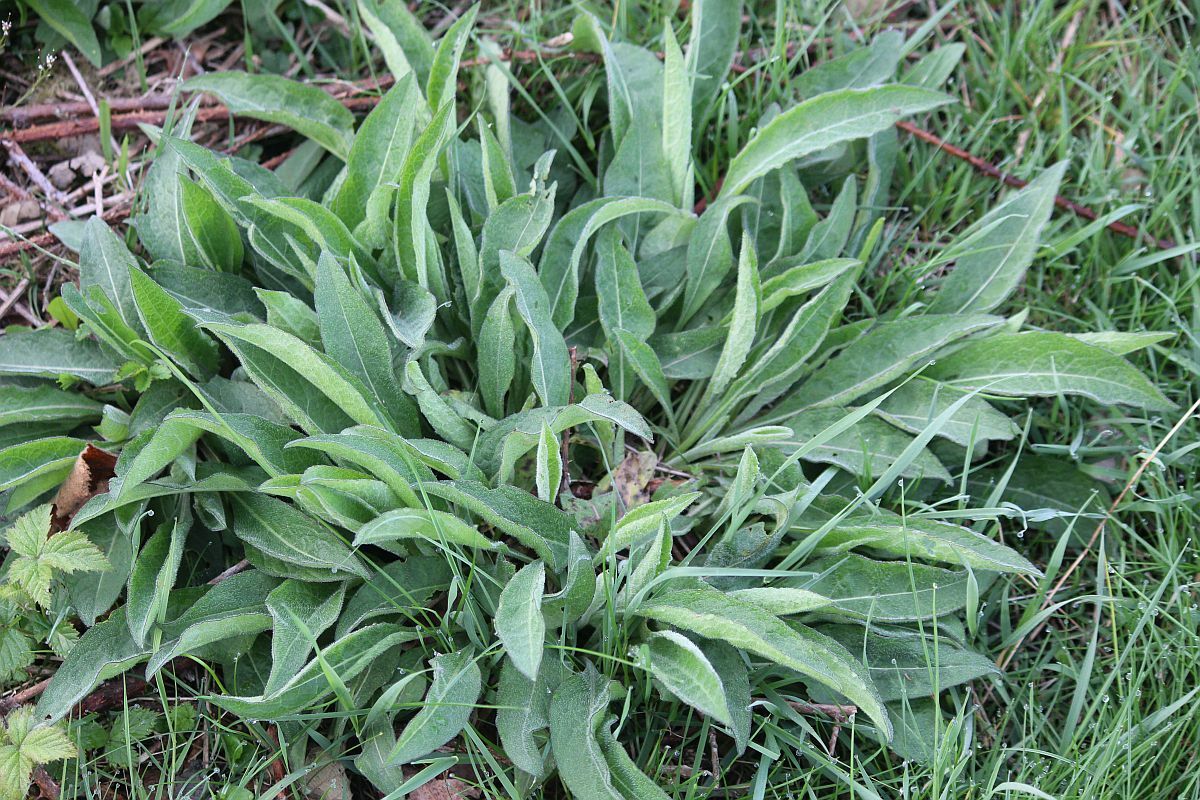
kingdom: Plantae
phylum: Tracheophyta
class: Magnoliopsida
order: Asterales
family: Asteraceae
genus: Centaurea
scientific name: Centaurea nigra
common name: Lesser knapweed
